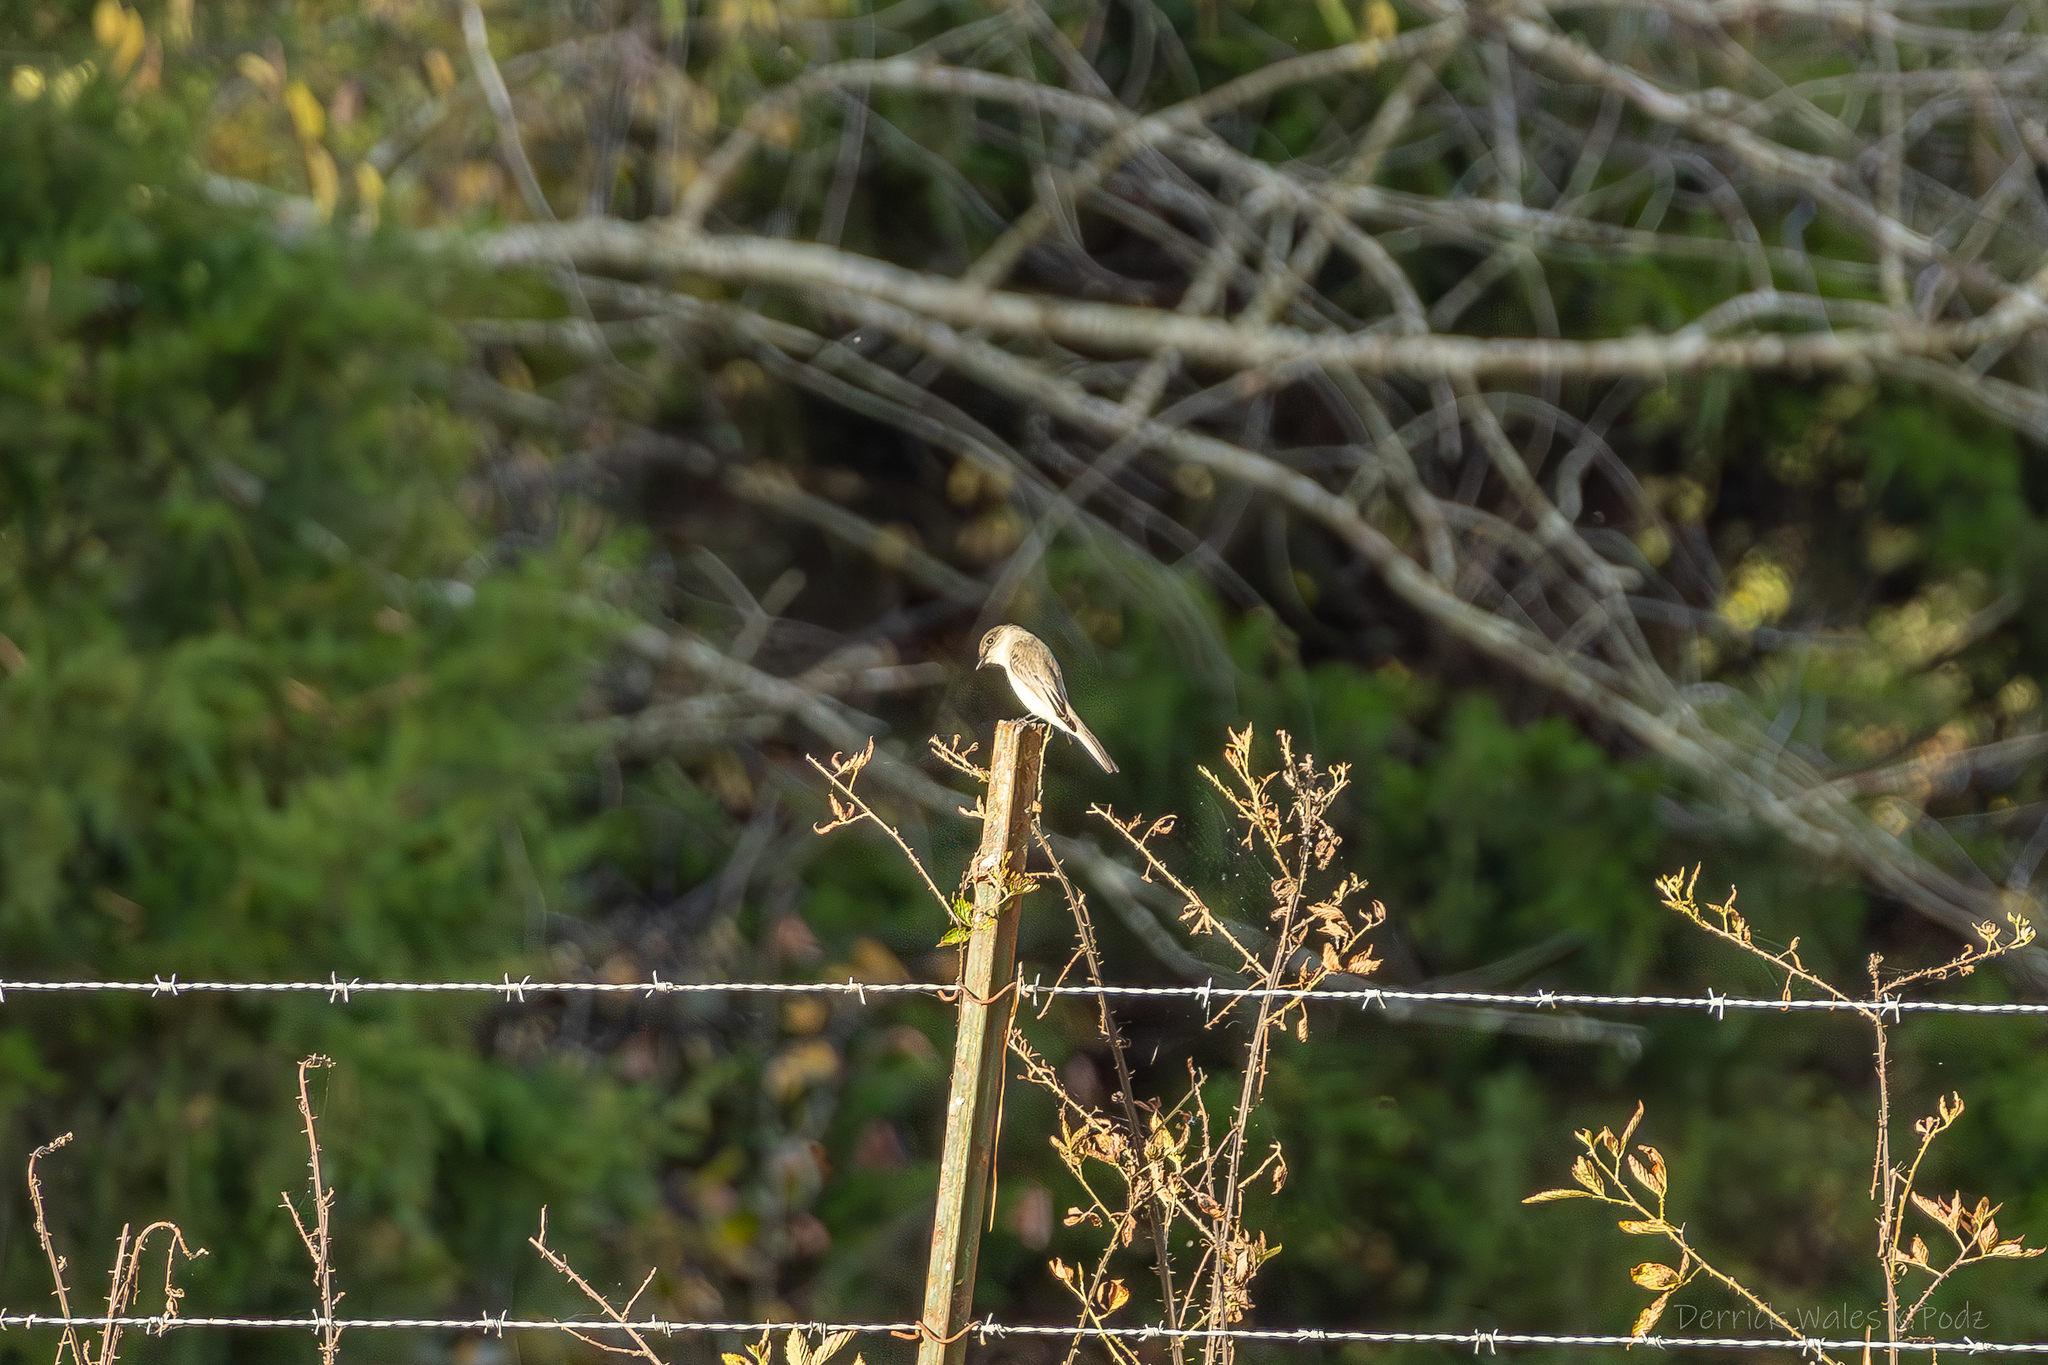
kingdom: Animalia
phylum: Chordata
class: Aves
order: Passeriformes
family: Tyrannidae
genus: Sayornis
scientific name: Sayornis phoebe
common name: Eastern phoebe
